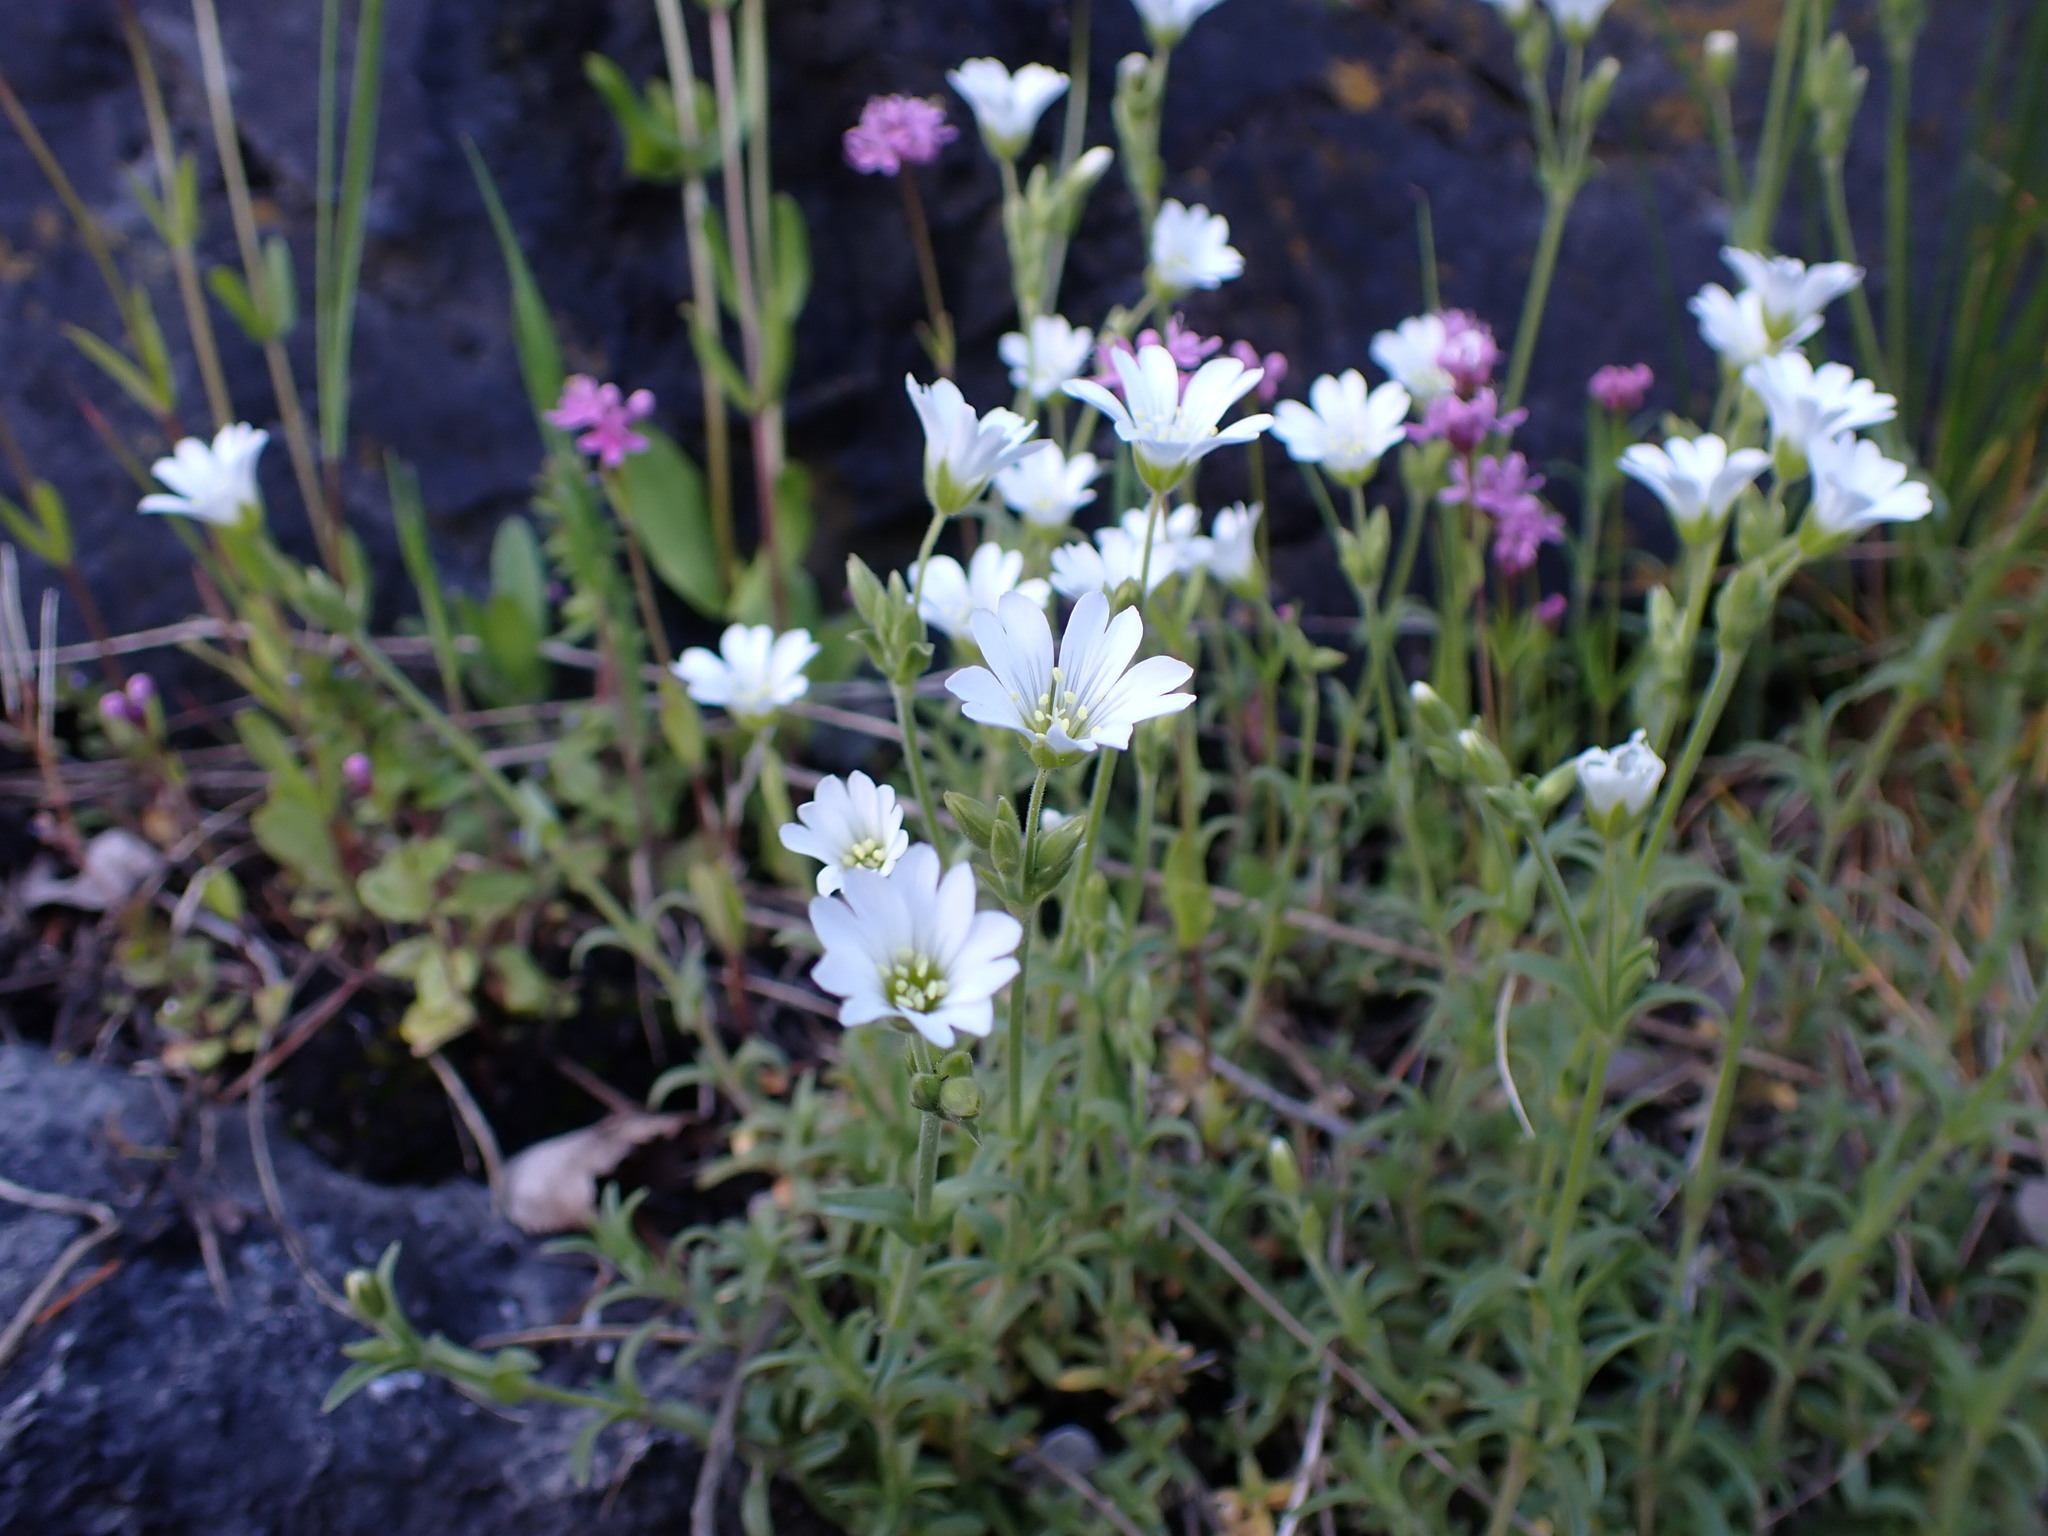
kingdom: Plantae
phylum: Tracheophyta
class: Magnoliopsida
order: Caryophyllales
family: Caryophyllaceae
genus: Cerastium
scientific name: Cerastium arvense
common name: Field mouse-ear
